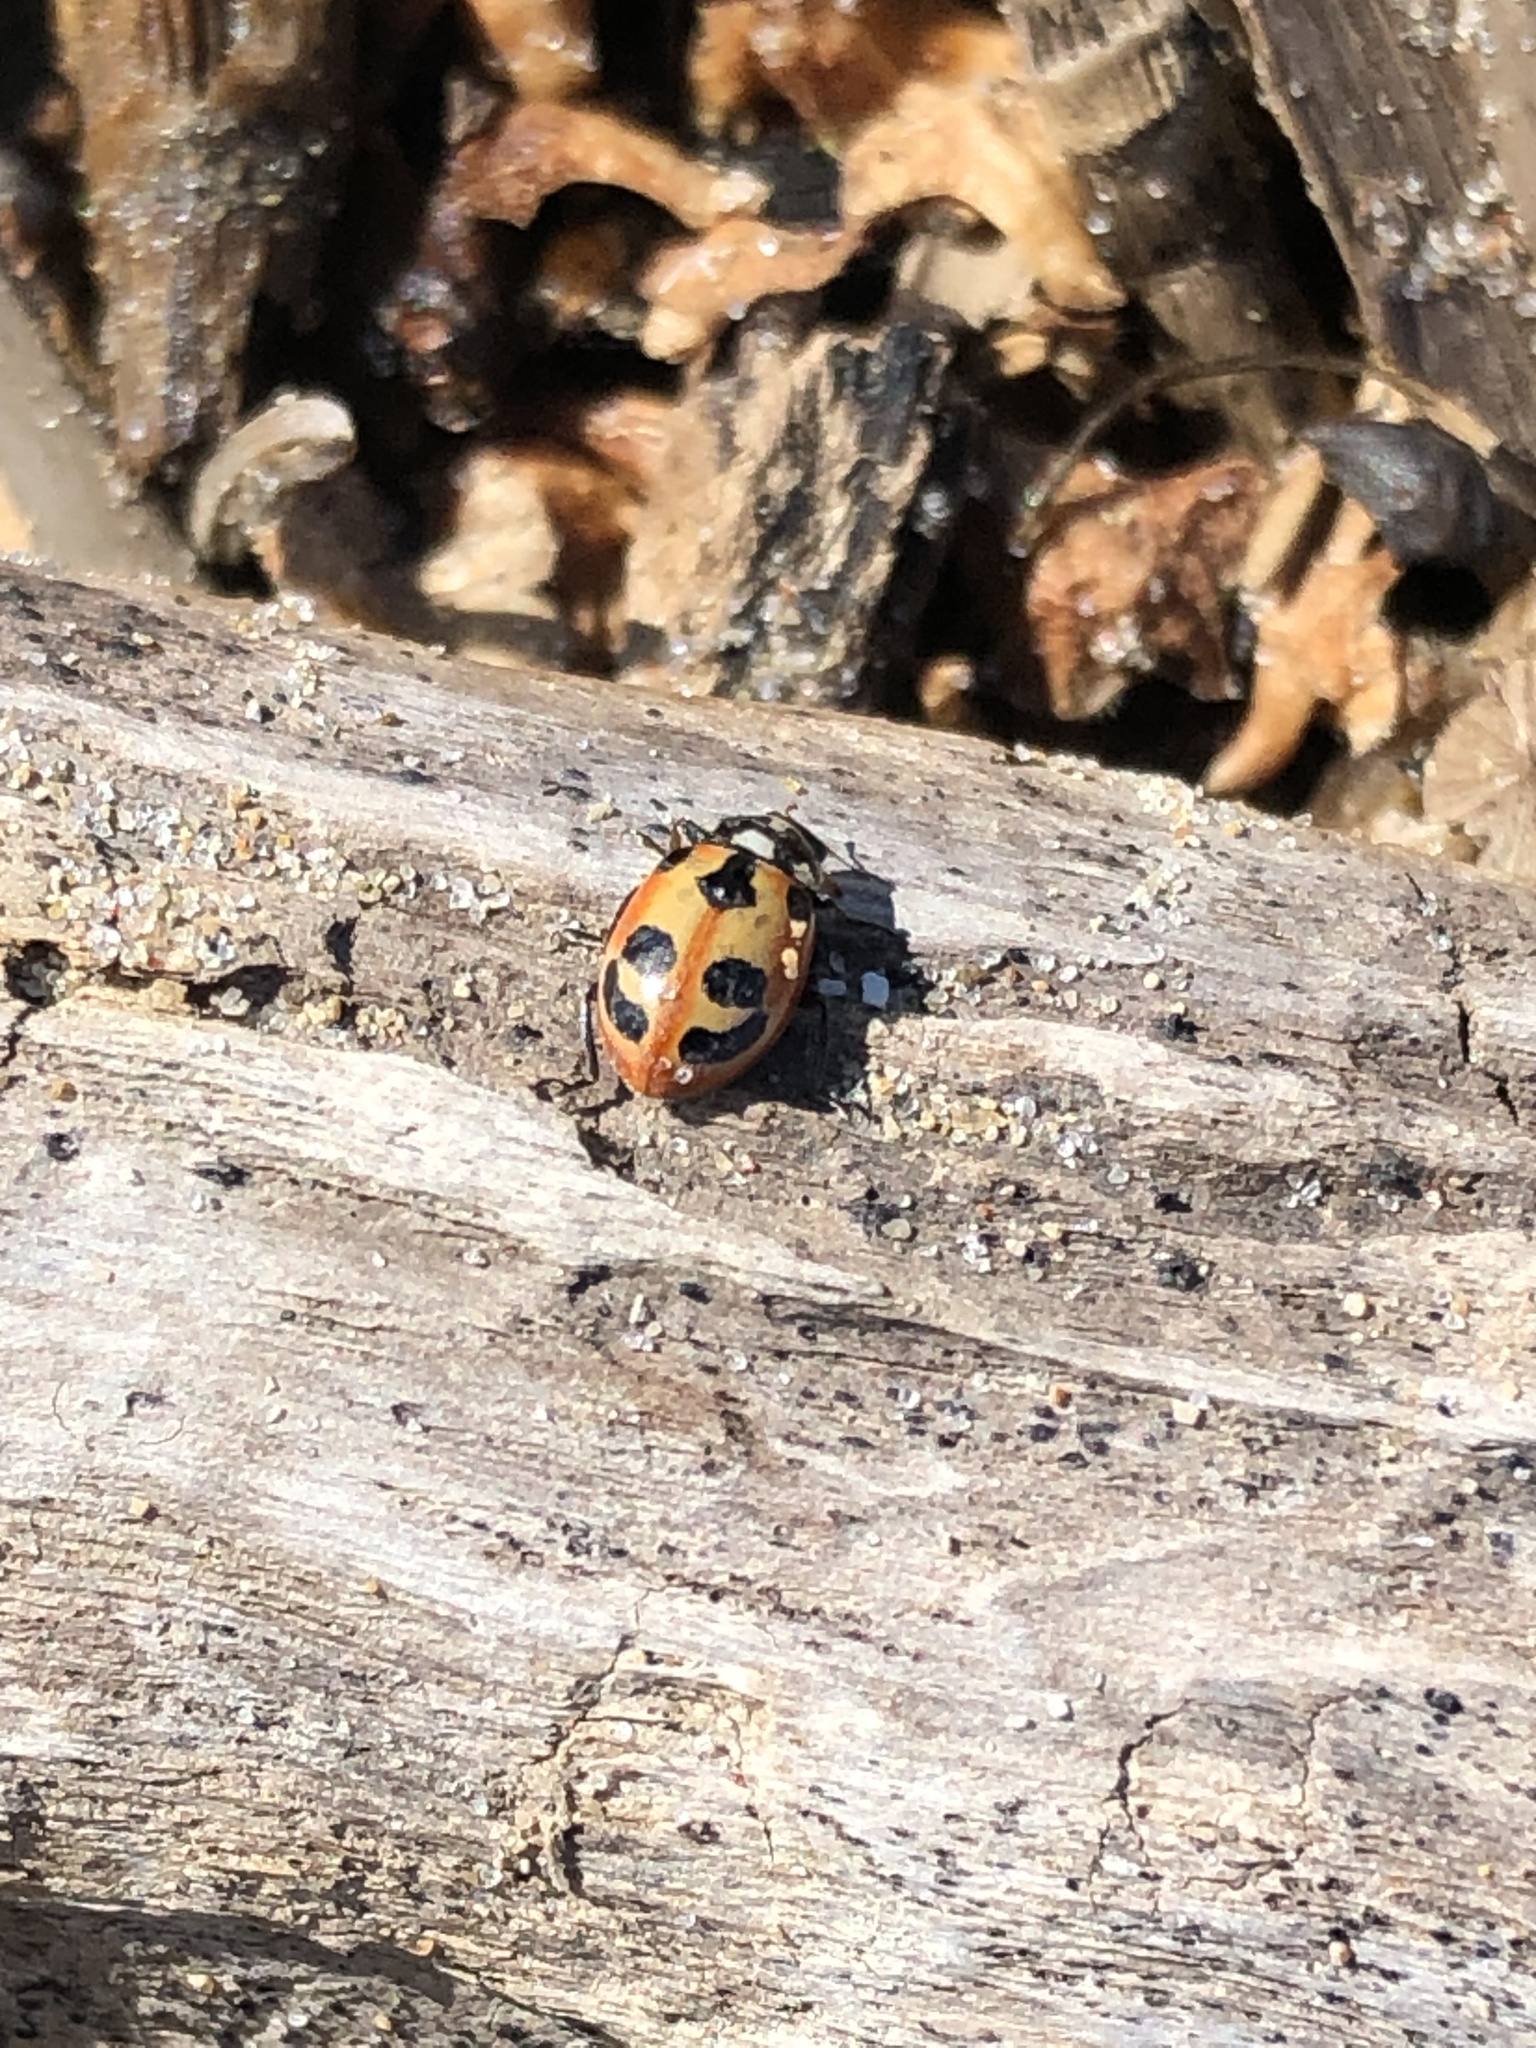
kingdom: Animalia
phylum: Arthropoda
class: Insecta
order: Coleoptera
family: Coccinellidae
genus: Hippodamia
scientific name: Hippodamia parenthesis
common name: Parenthesis lady beetle
